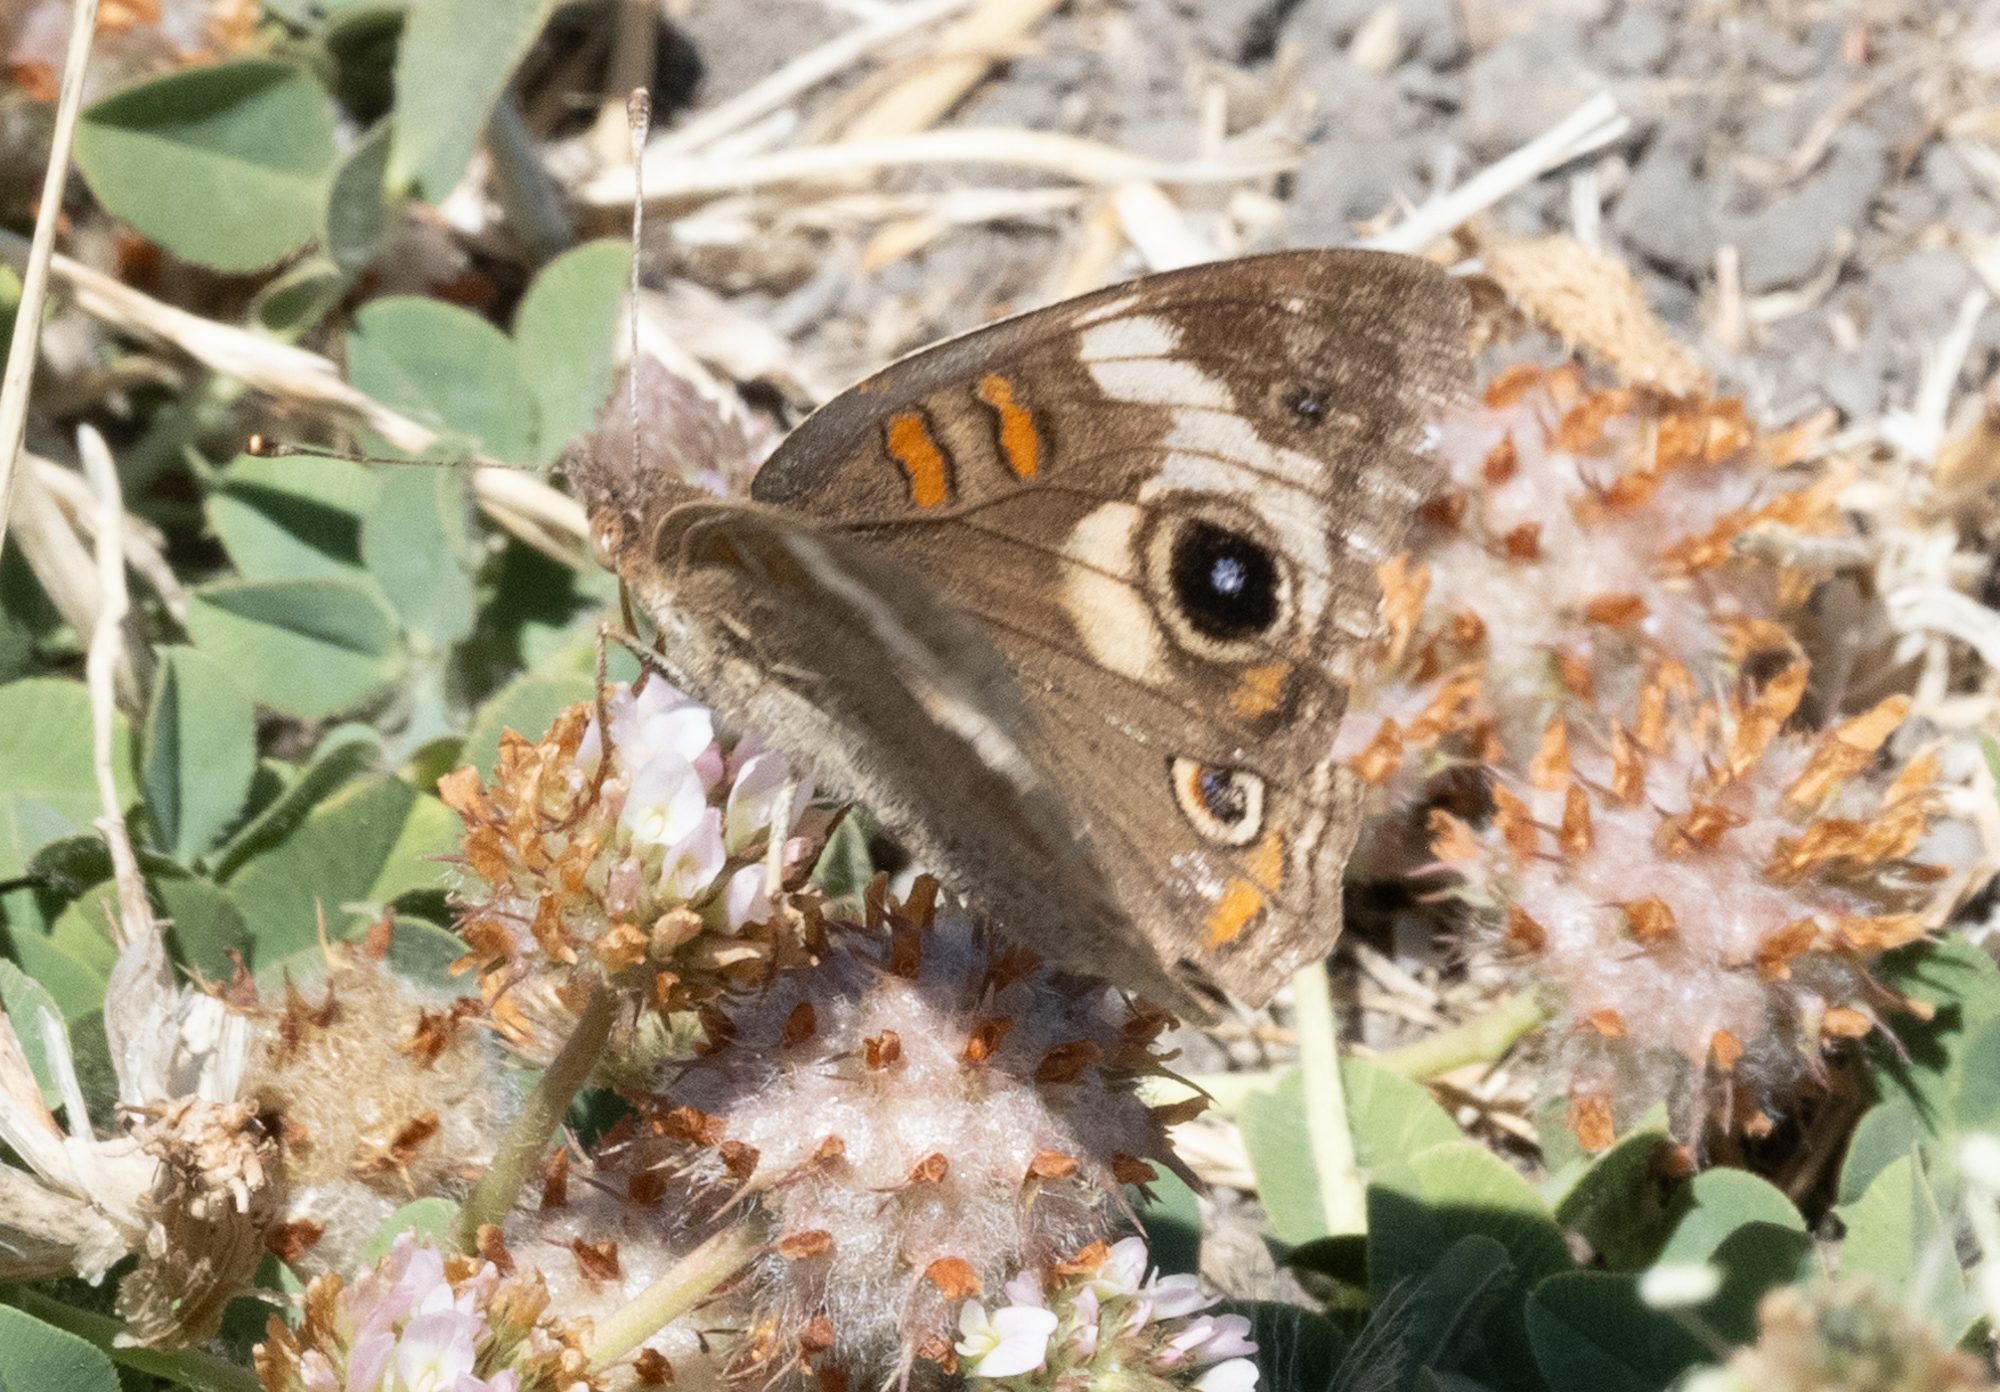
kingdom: Animalia
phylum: Arthropoda
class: Insecta
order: Lepidoptera
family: Nymphalidae
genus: Junonia
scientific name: Junonia grisea
